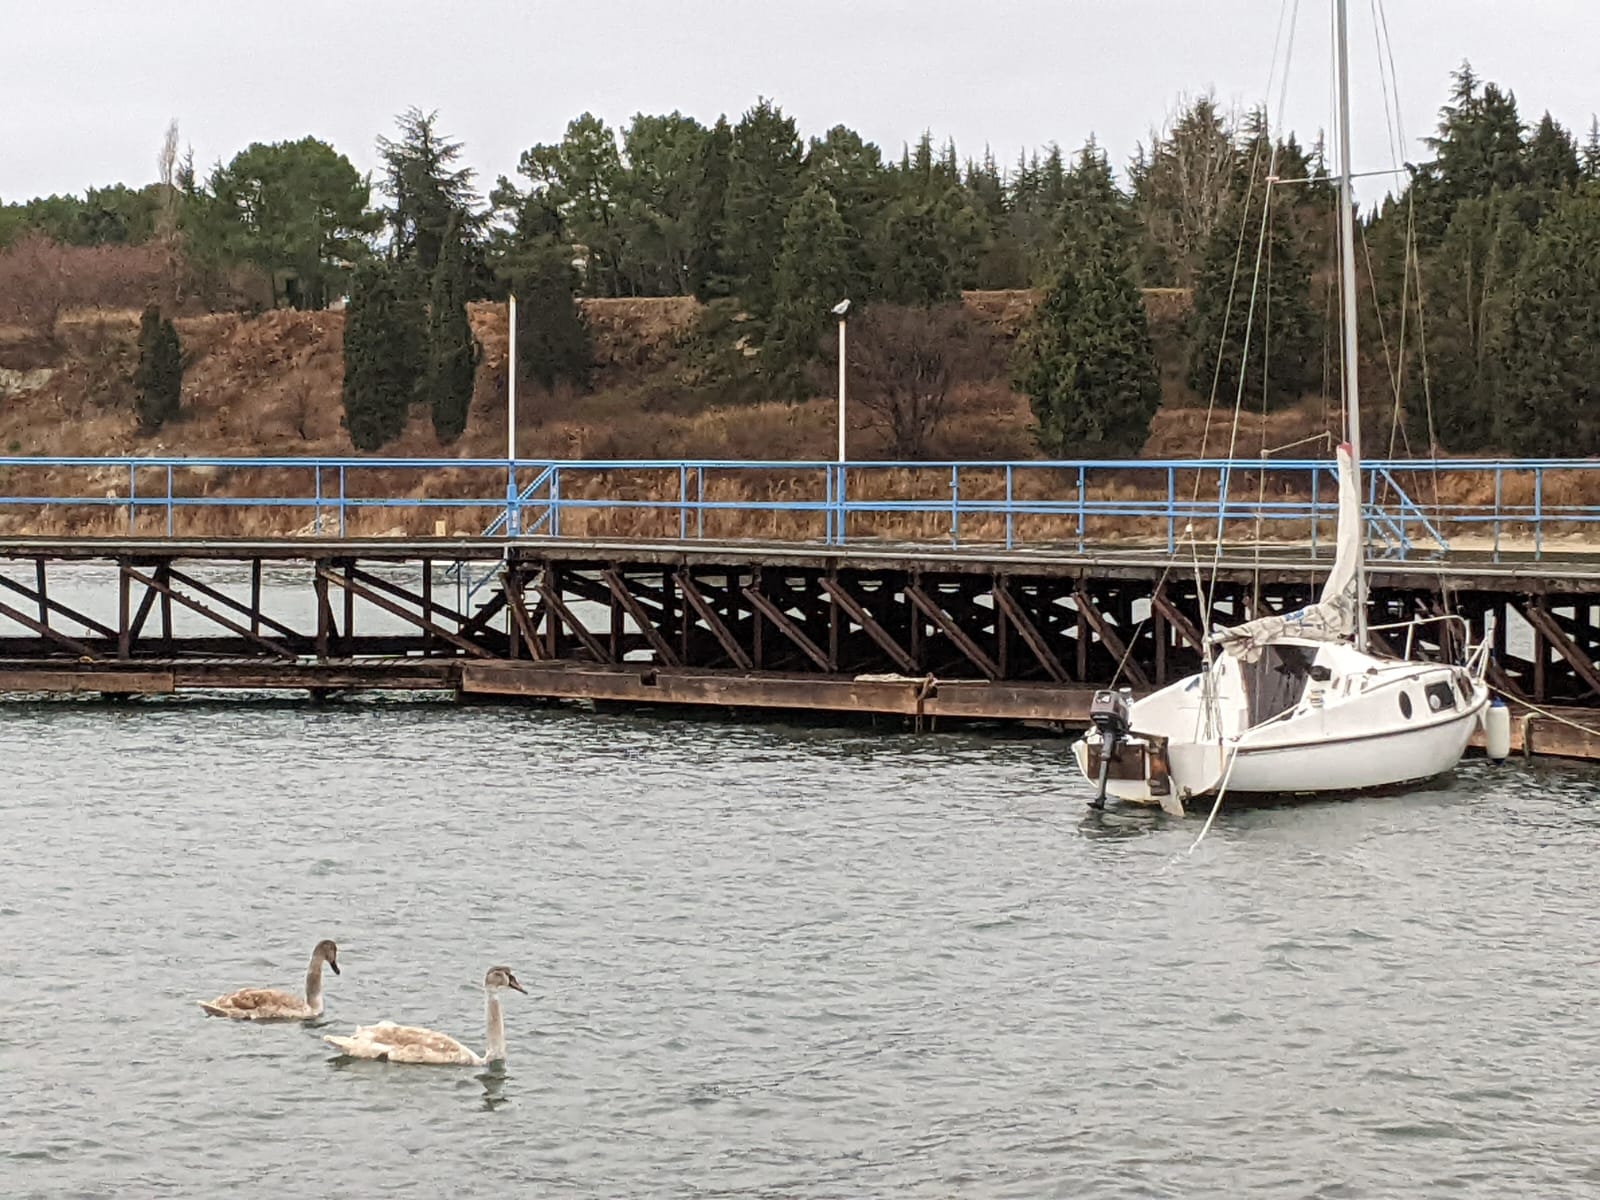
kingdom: Animalia
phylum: Chordata
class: Aves
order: Anseriformes
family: Anatidae
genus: Cygnus
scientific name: Cygnus olor
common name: Mute swan
